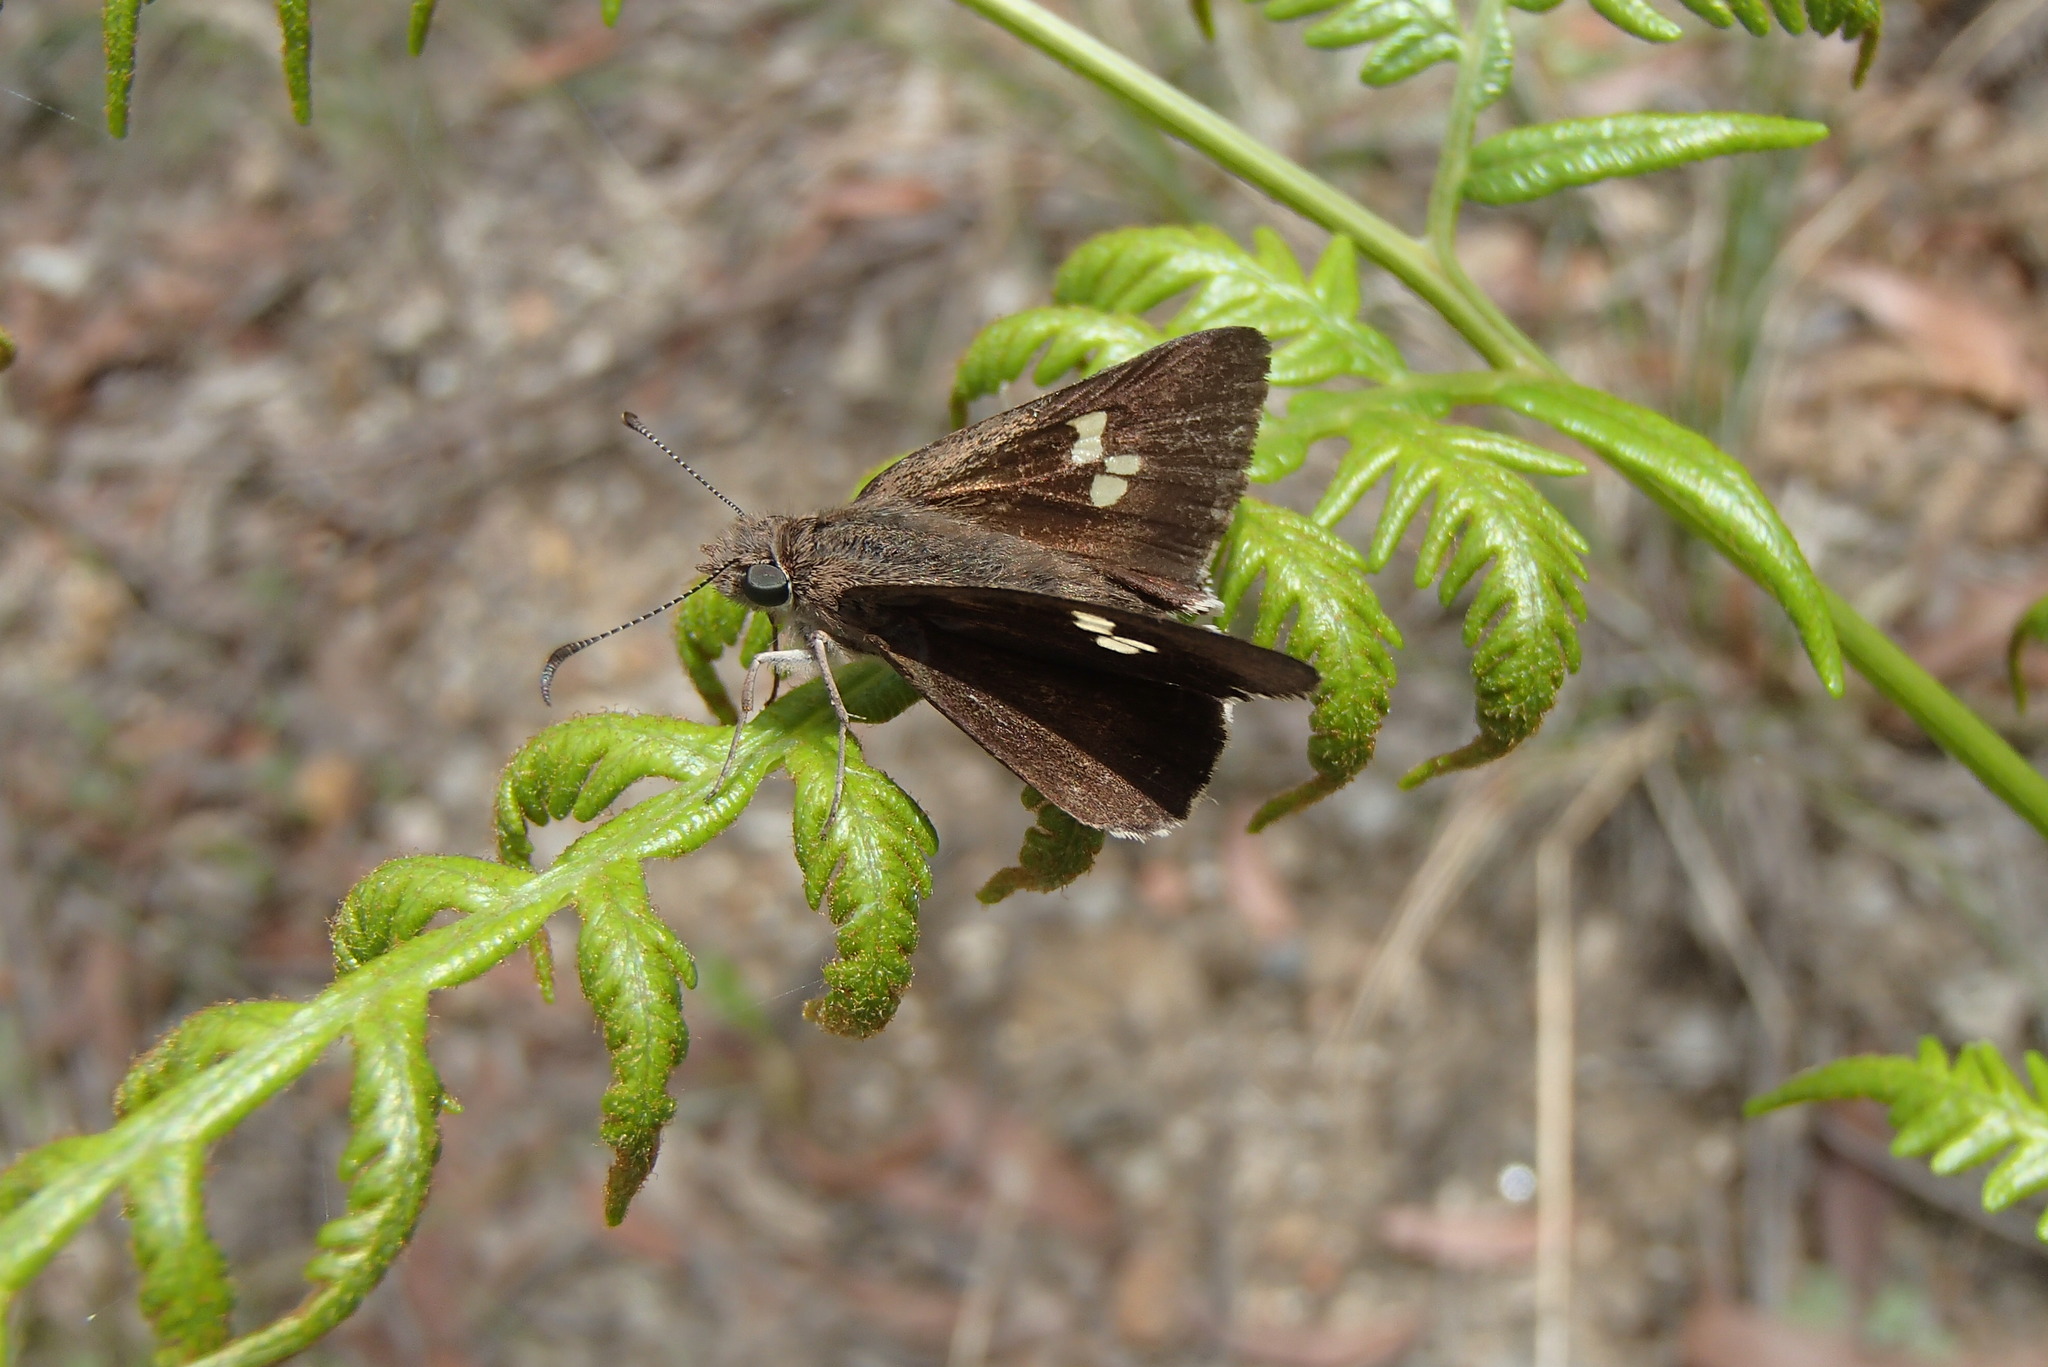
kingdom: Animalia
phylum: Arthropoda
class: Insecta
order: Lepidoptera
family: Hesperiidae
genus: Mesodina
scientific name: Mesodina halyzia
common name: Eastern iris-skipper
